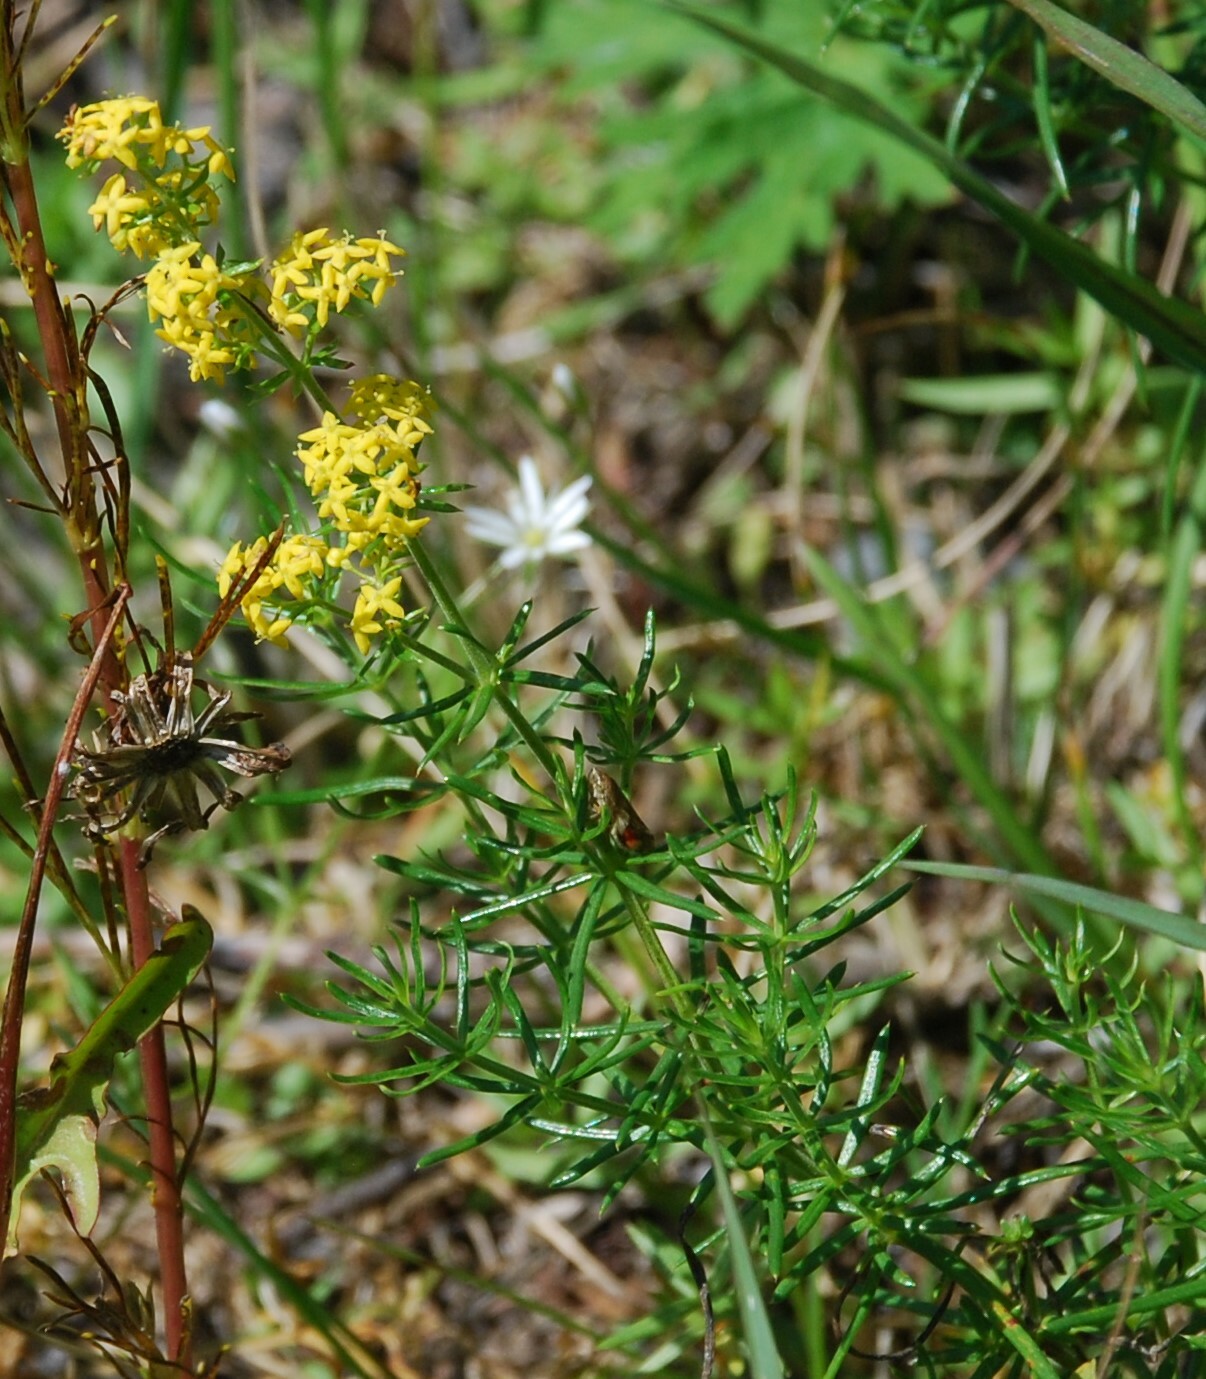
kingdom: Plantae
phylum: Tracheophyta
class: Magnoliopsida
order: Gentianales
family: Rubiaceae
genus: Galium
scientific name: Galium verum
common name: Lady's bedstraw
